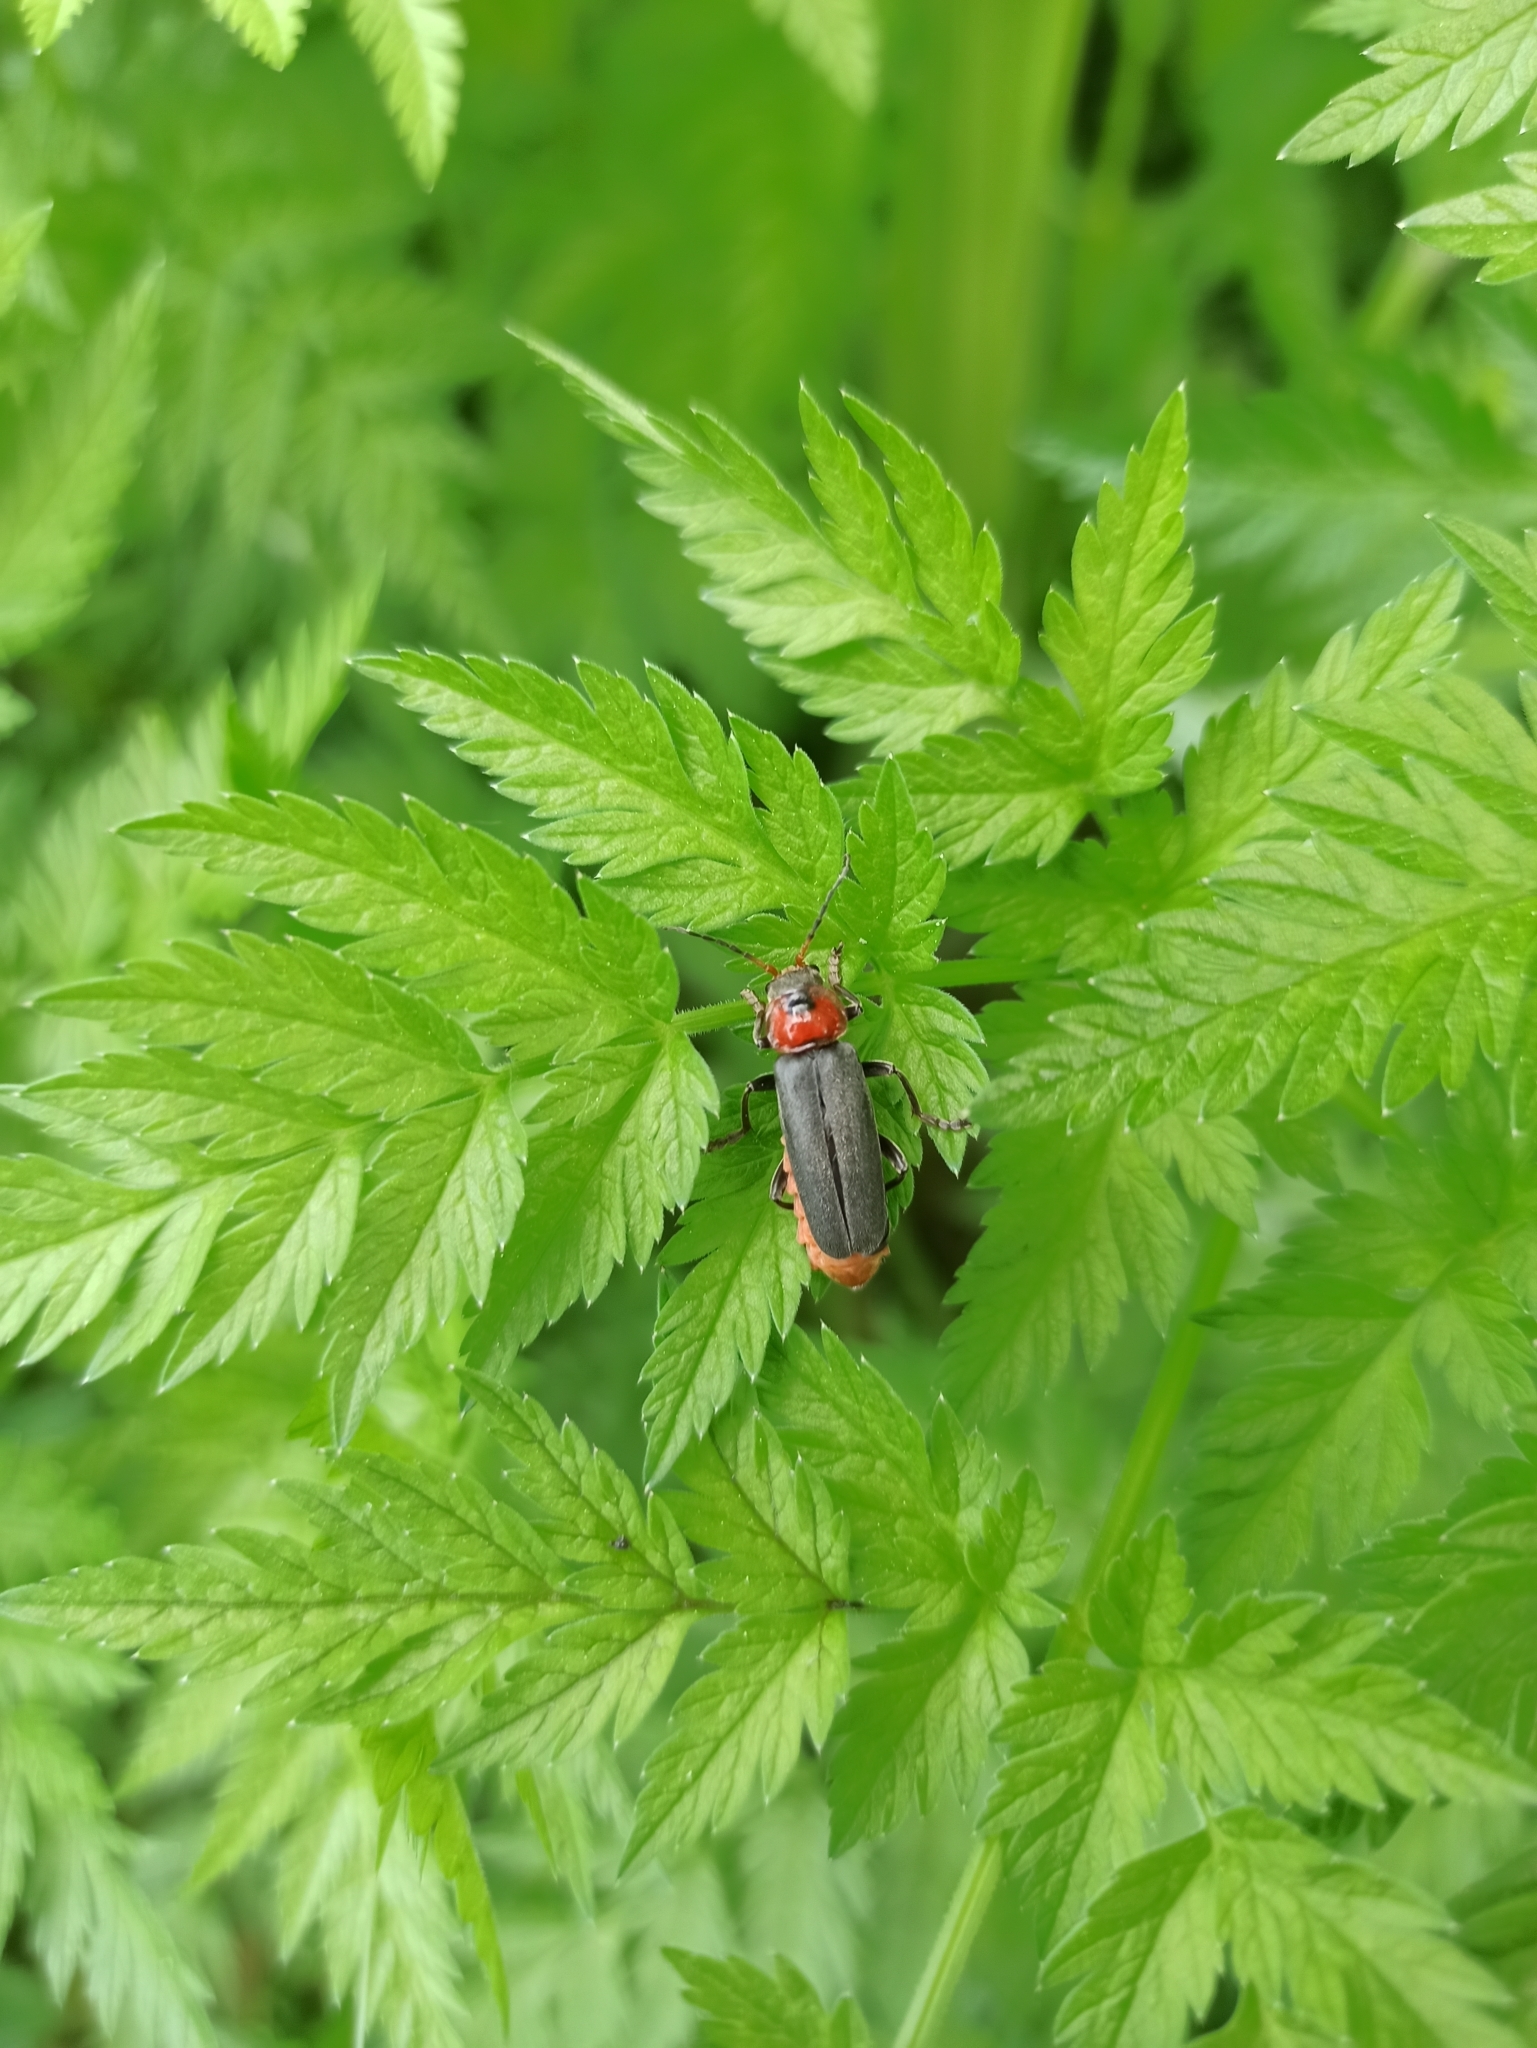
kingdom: Animalia
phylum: Arthropoda
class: Insecta
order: Coleoptera
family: Cantharidae
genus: Cantharis
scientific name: Cantharis fusca
